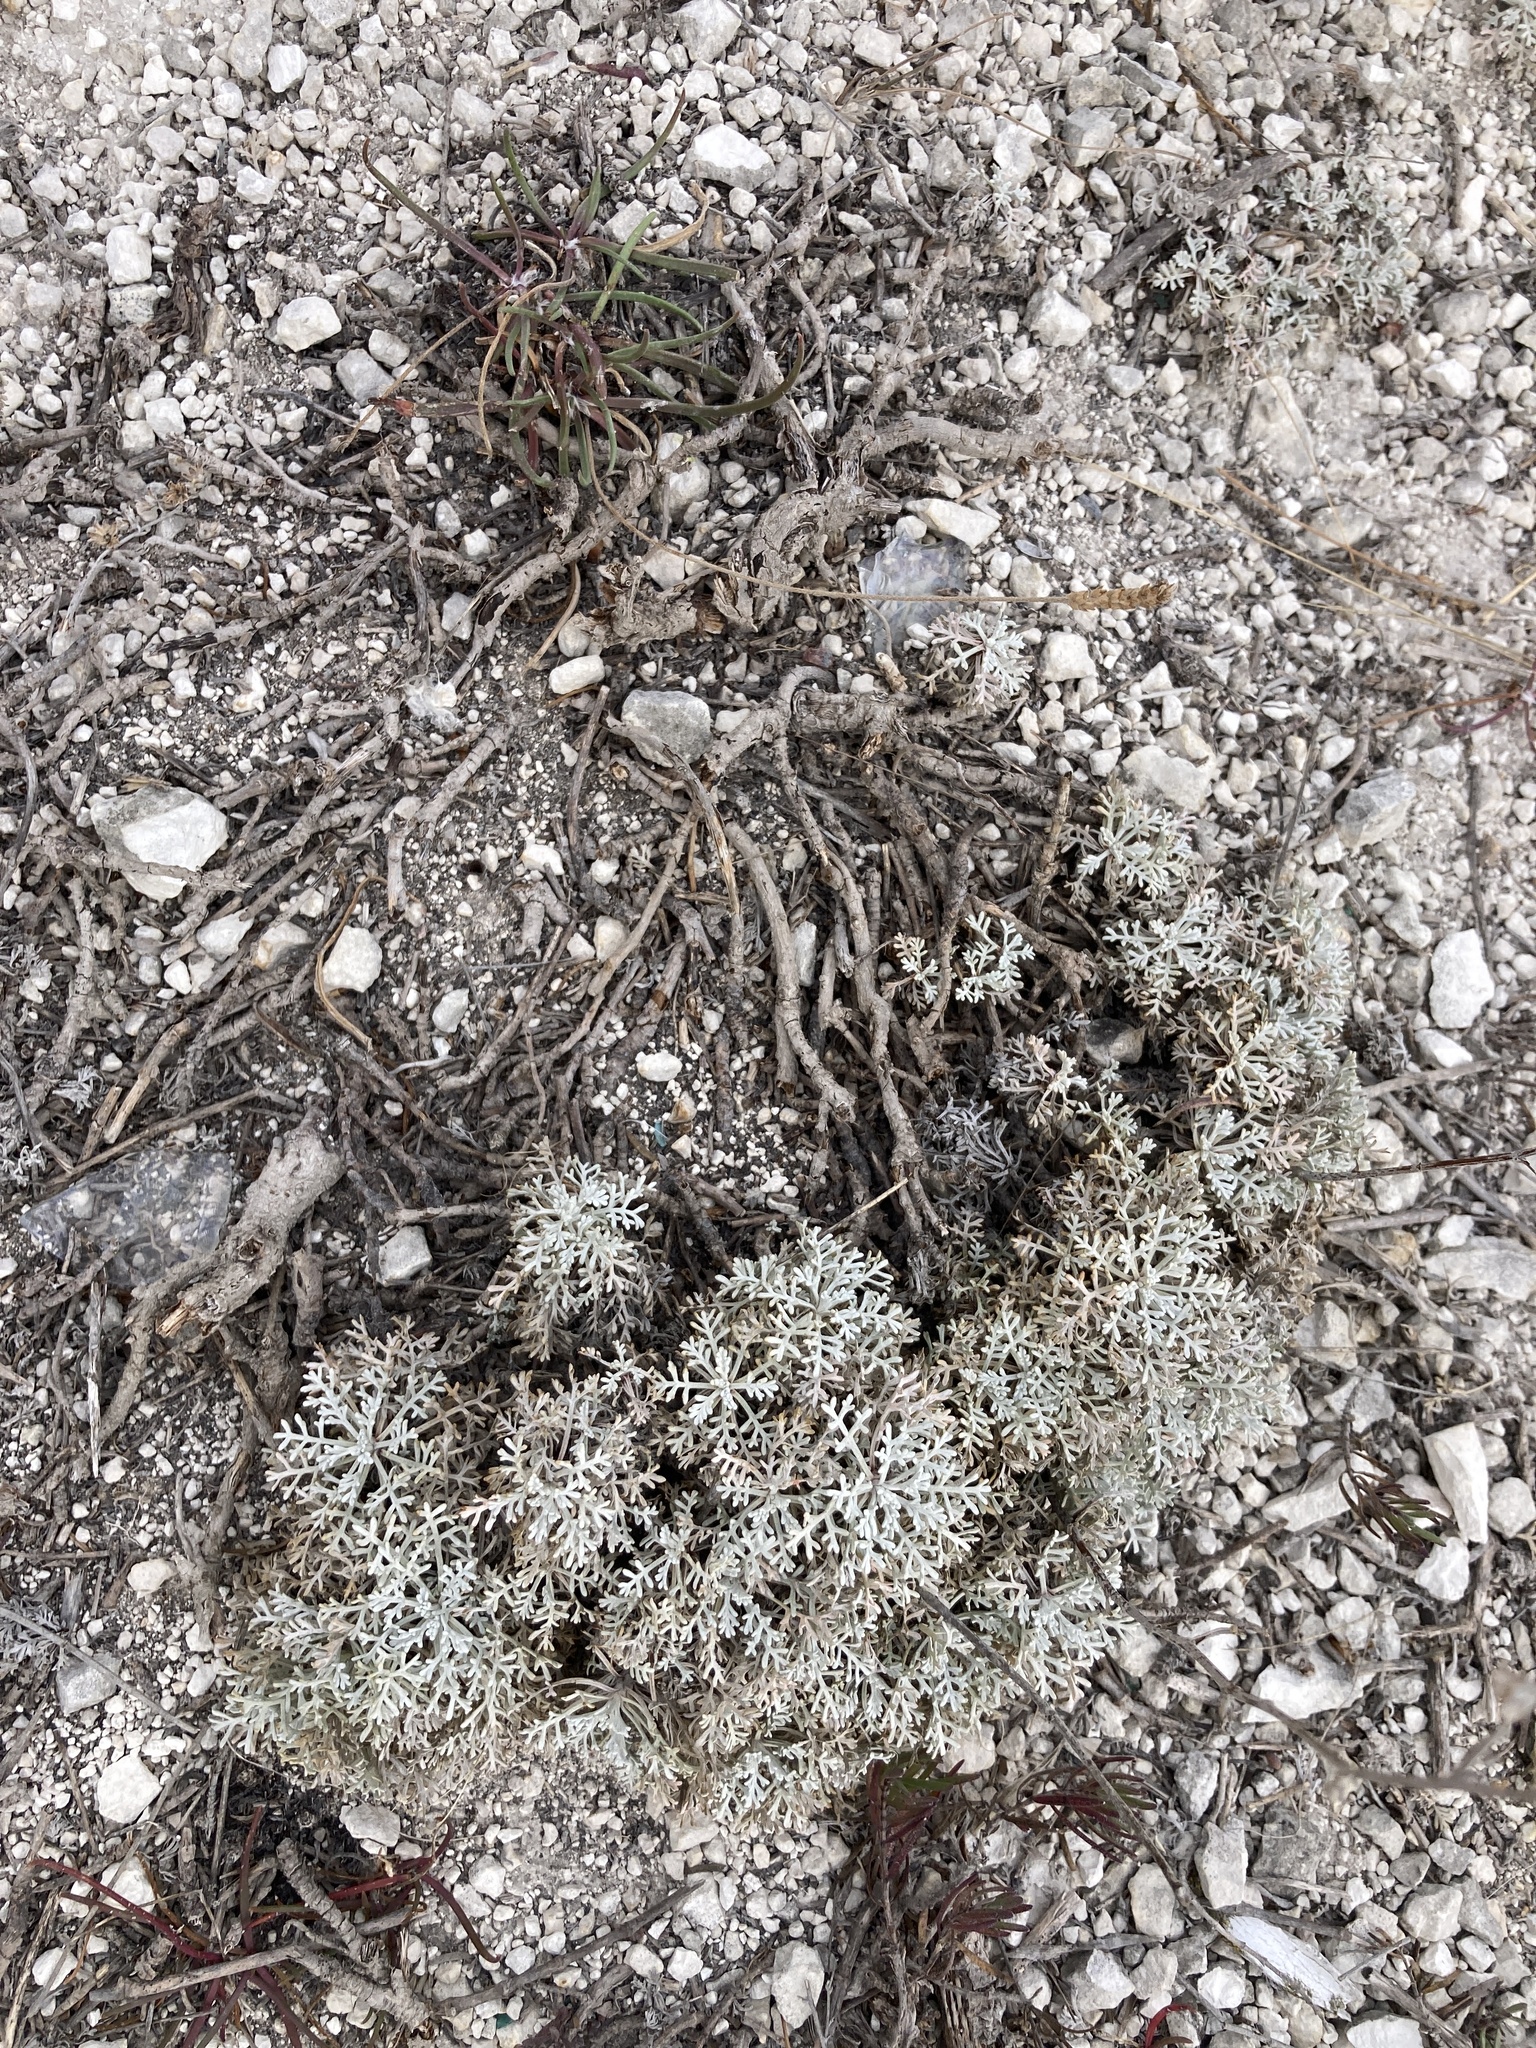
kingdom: Plantae
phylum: Tracheophyta
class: Magnoliopsida
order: Asterales
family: Asteraceae
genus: Artemisia
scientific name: Artemisia hololeuca
